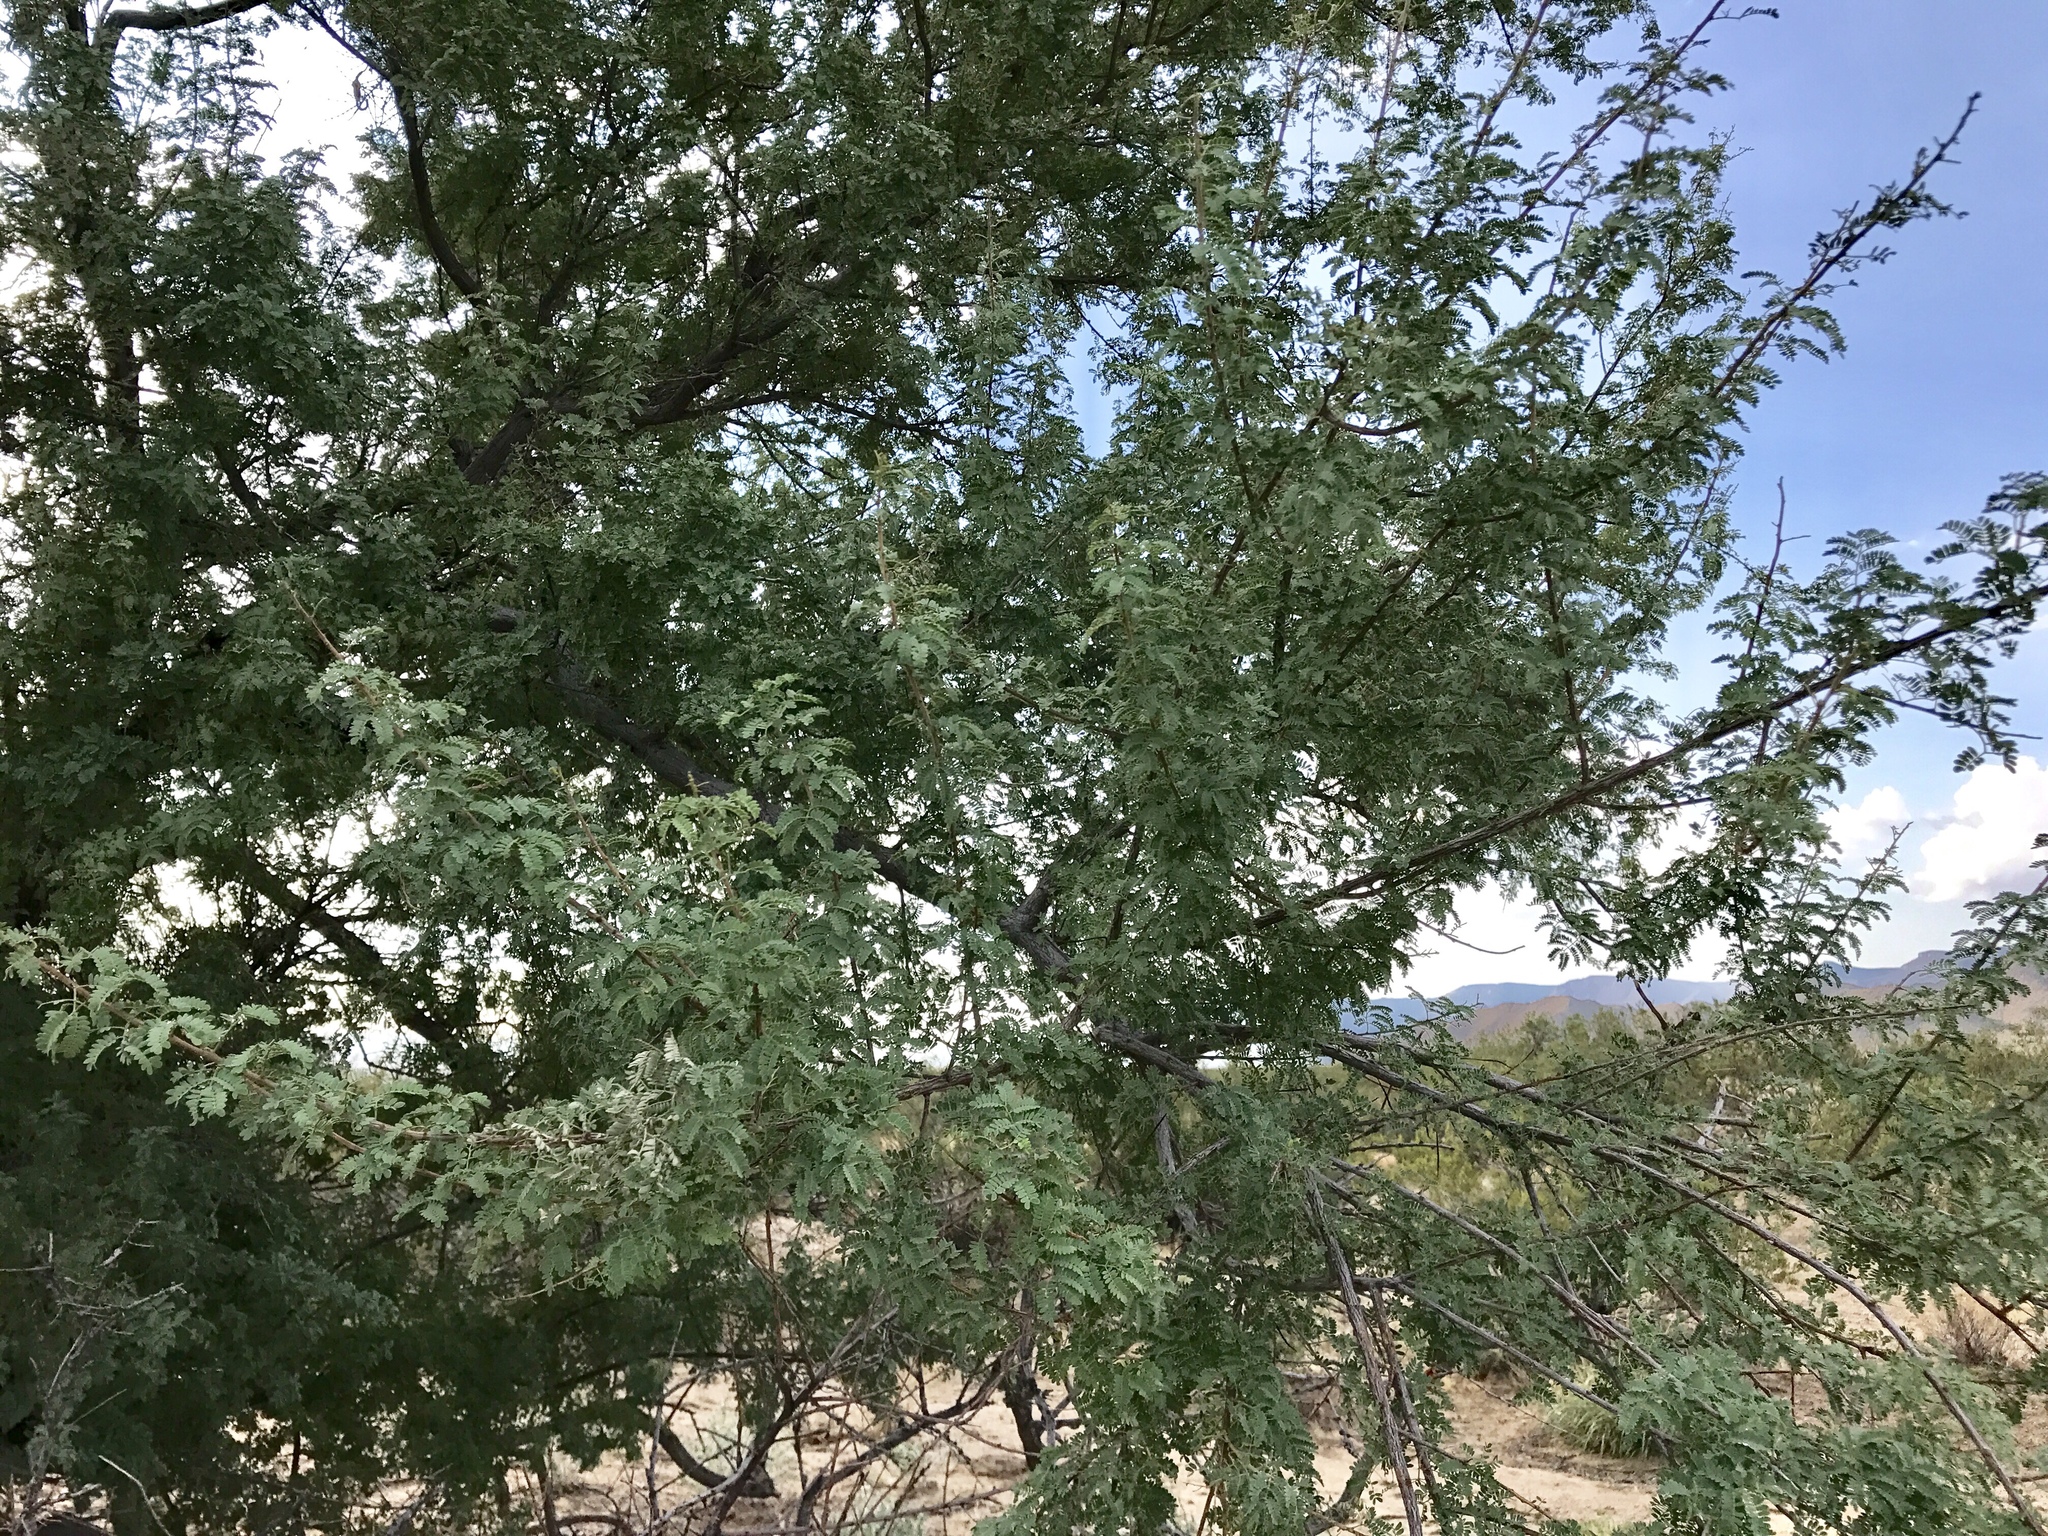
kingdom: Plantae
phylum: Tracheophyta
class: Magnoliopsida
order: Fabales
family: Fabaceae
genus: Senegalia
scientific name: Senegalia greggii
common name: Texas-mimosa
